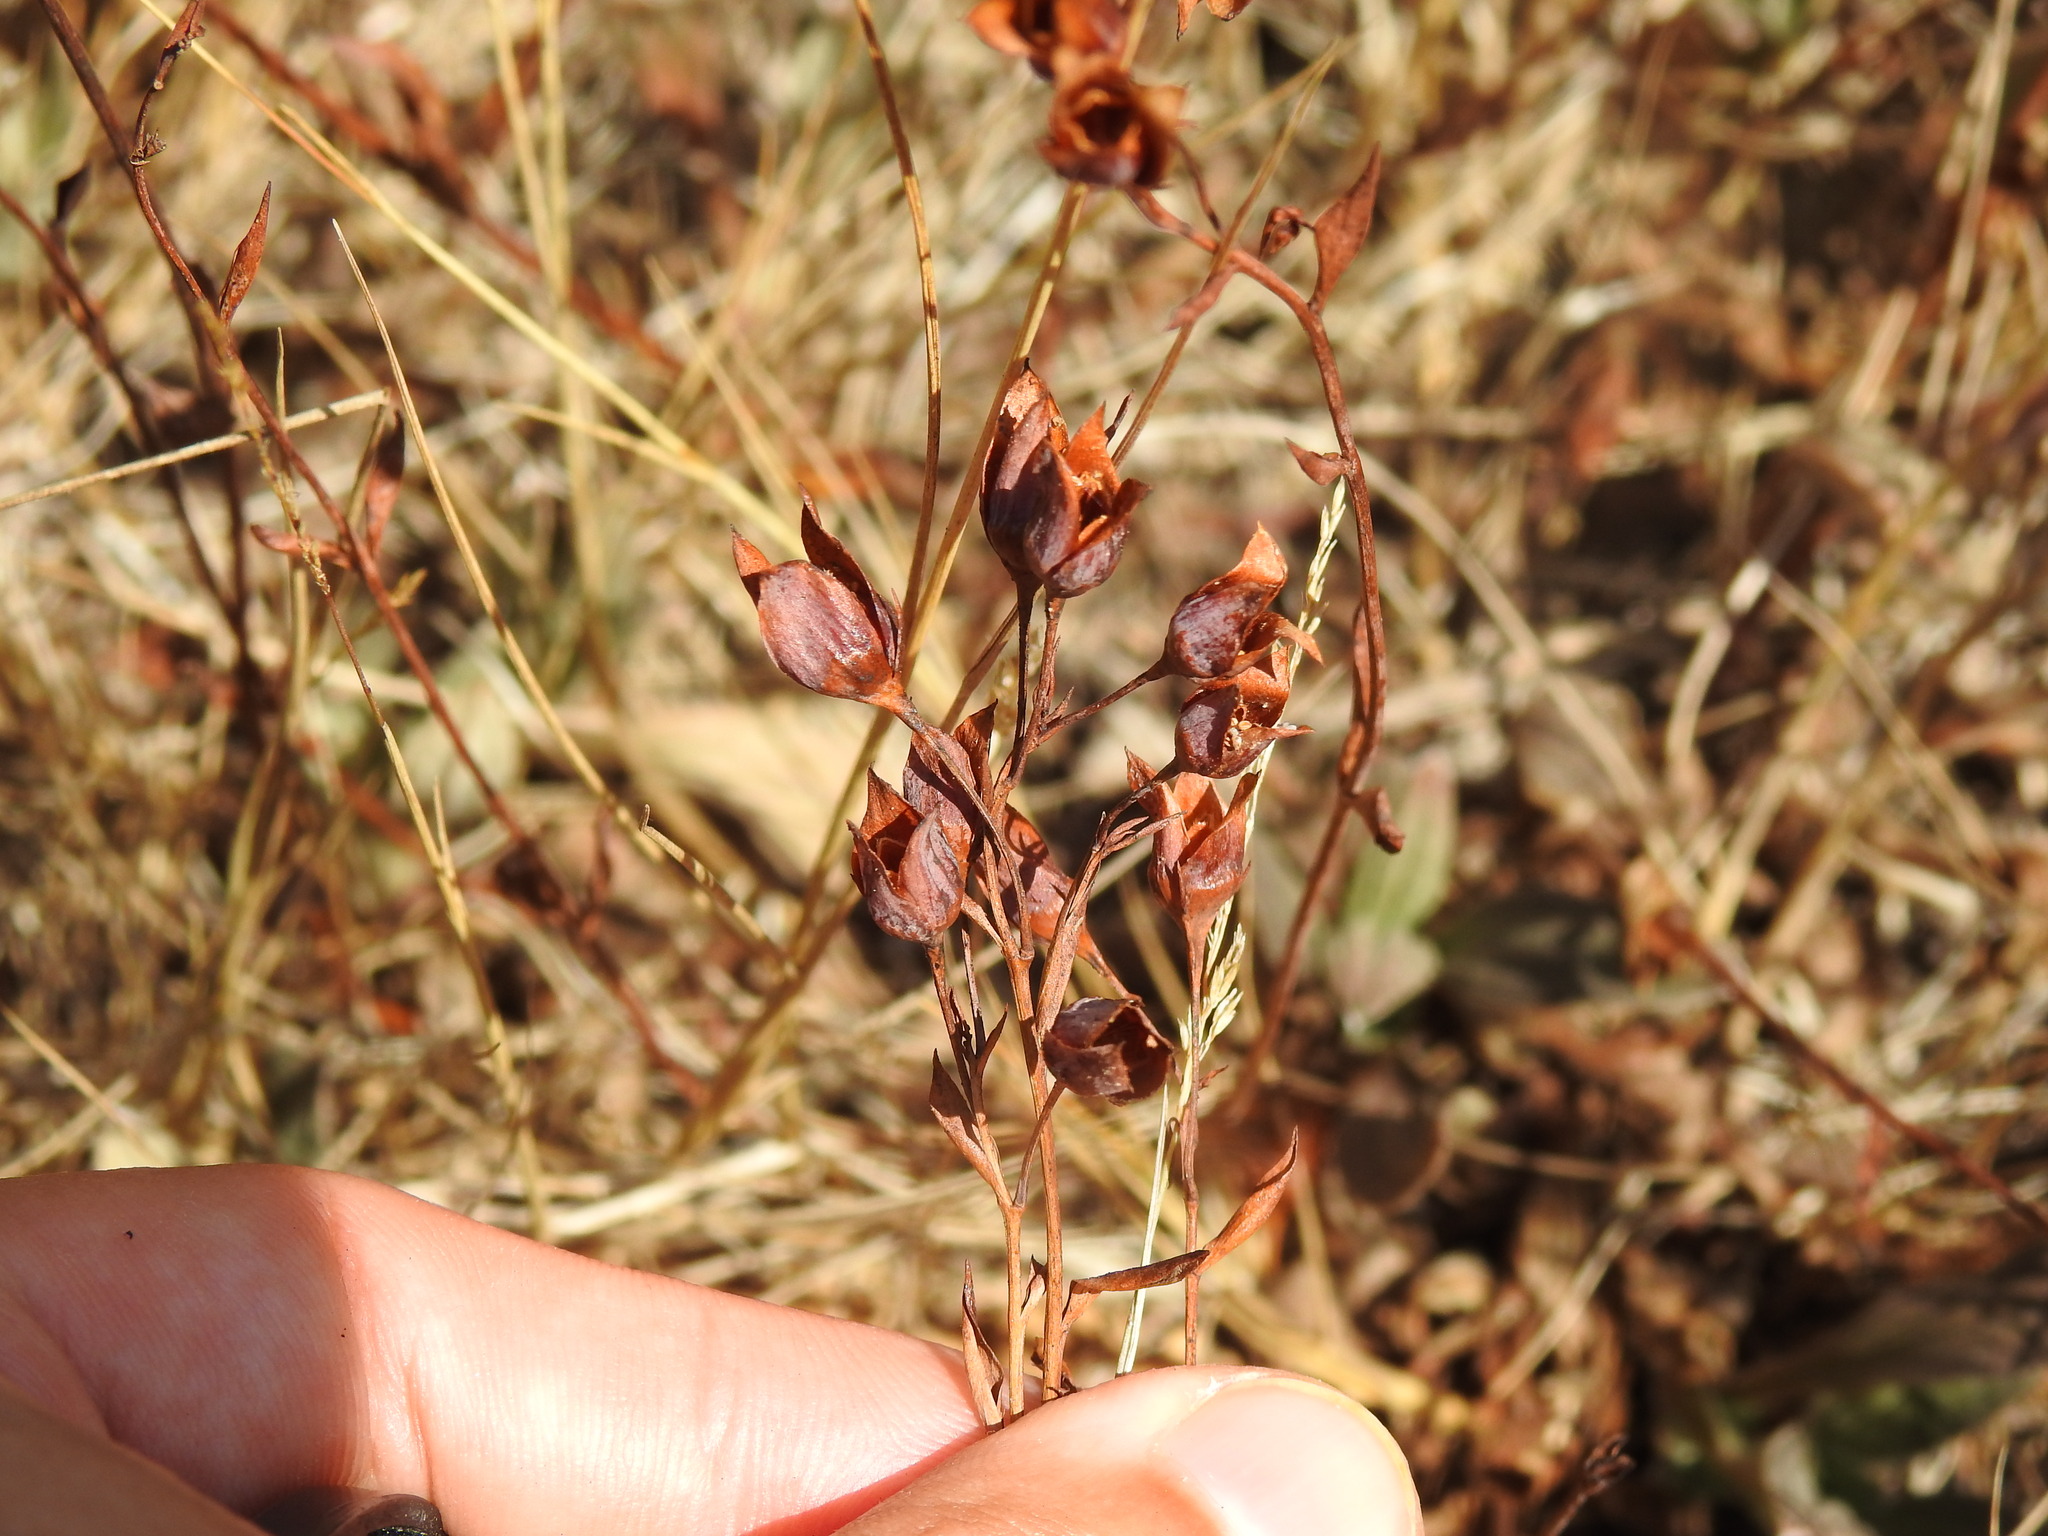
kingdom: Plantae
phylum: Tracheophyta
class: Magnoliopsida
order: Malvales
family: Cistaceae
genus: Tuberaria
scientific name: Tuberaria lignosa
